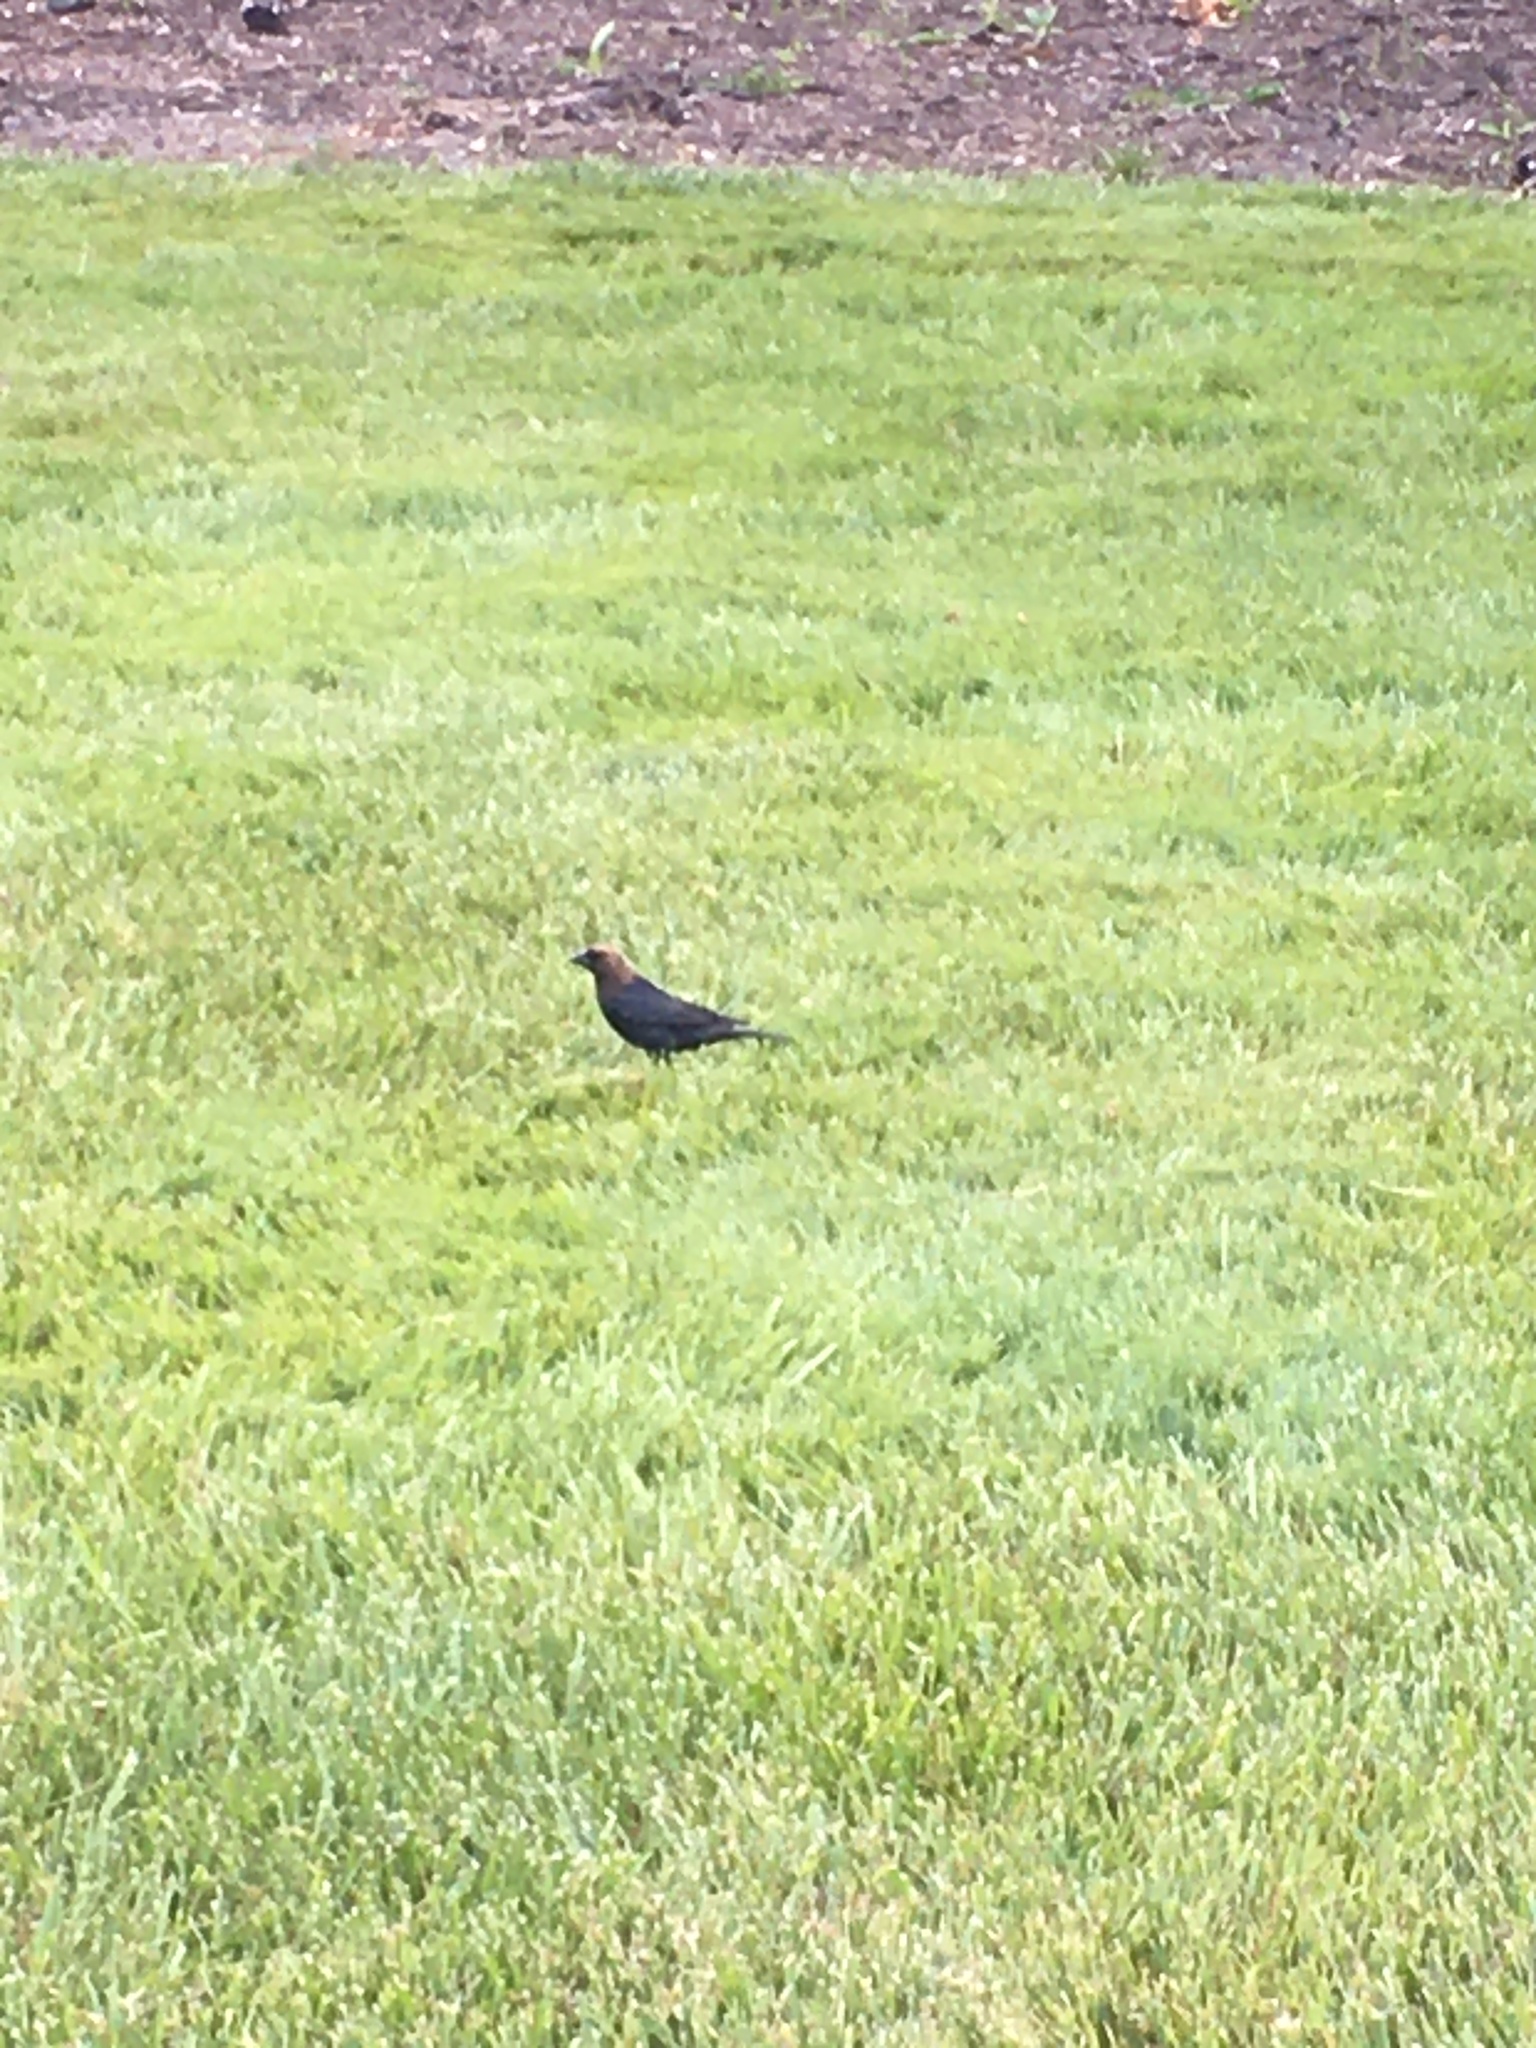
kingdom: Animalia
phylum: Chordata
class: Aves
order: Passeriformes
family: Icteridae
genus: Molothrus
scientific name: Molothrus ater
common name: Brown-headed cowbird
